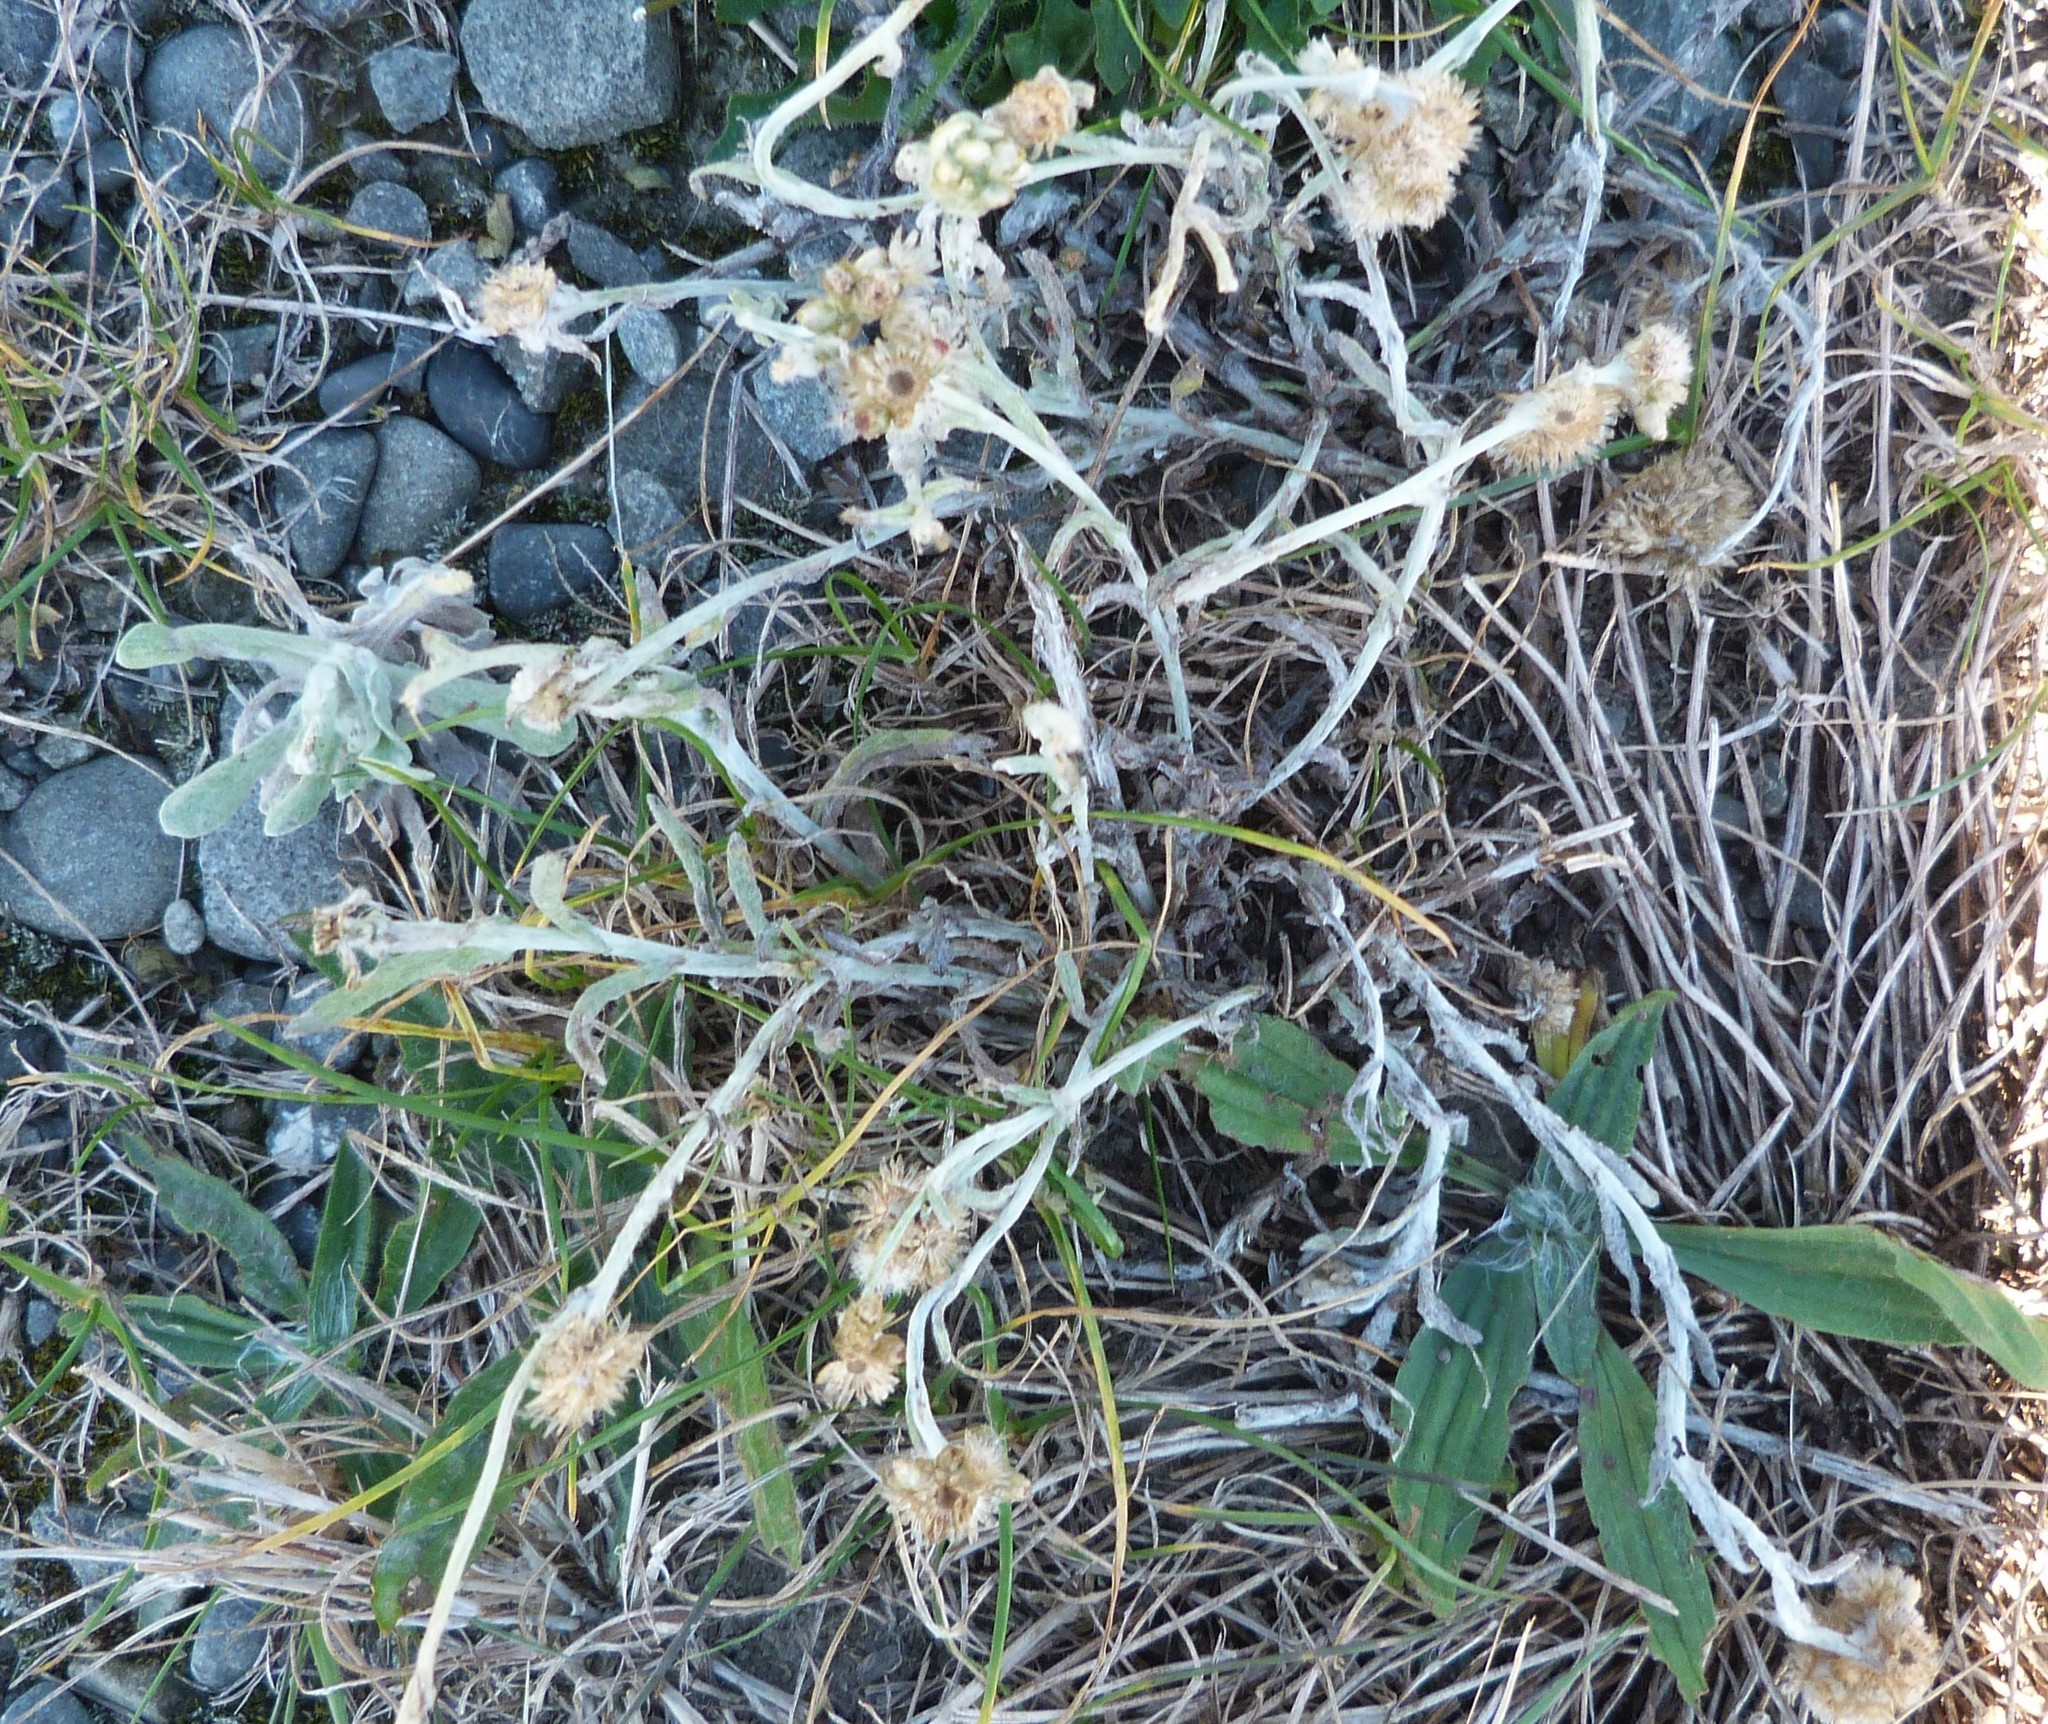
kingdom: Plantae
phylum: Tracheophyta
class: Magnoliopsida
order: Asterales
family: Asteraceae
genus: Helichrysum
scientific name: Helichrysum luteoalbum
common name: Daisy
